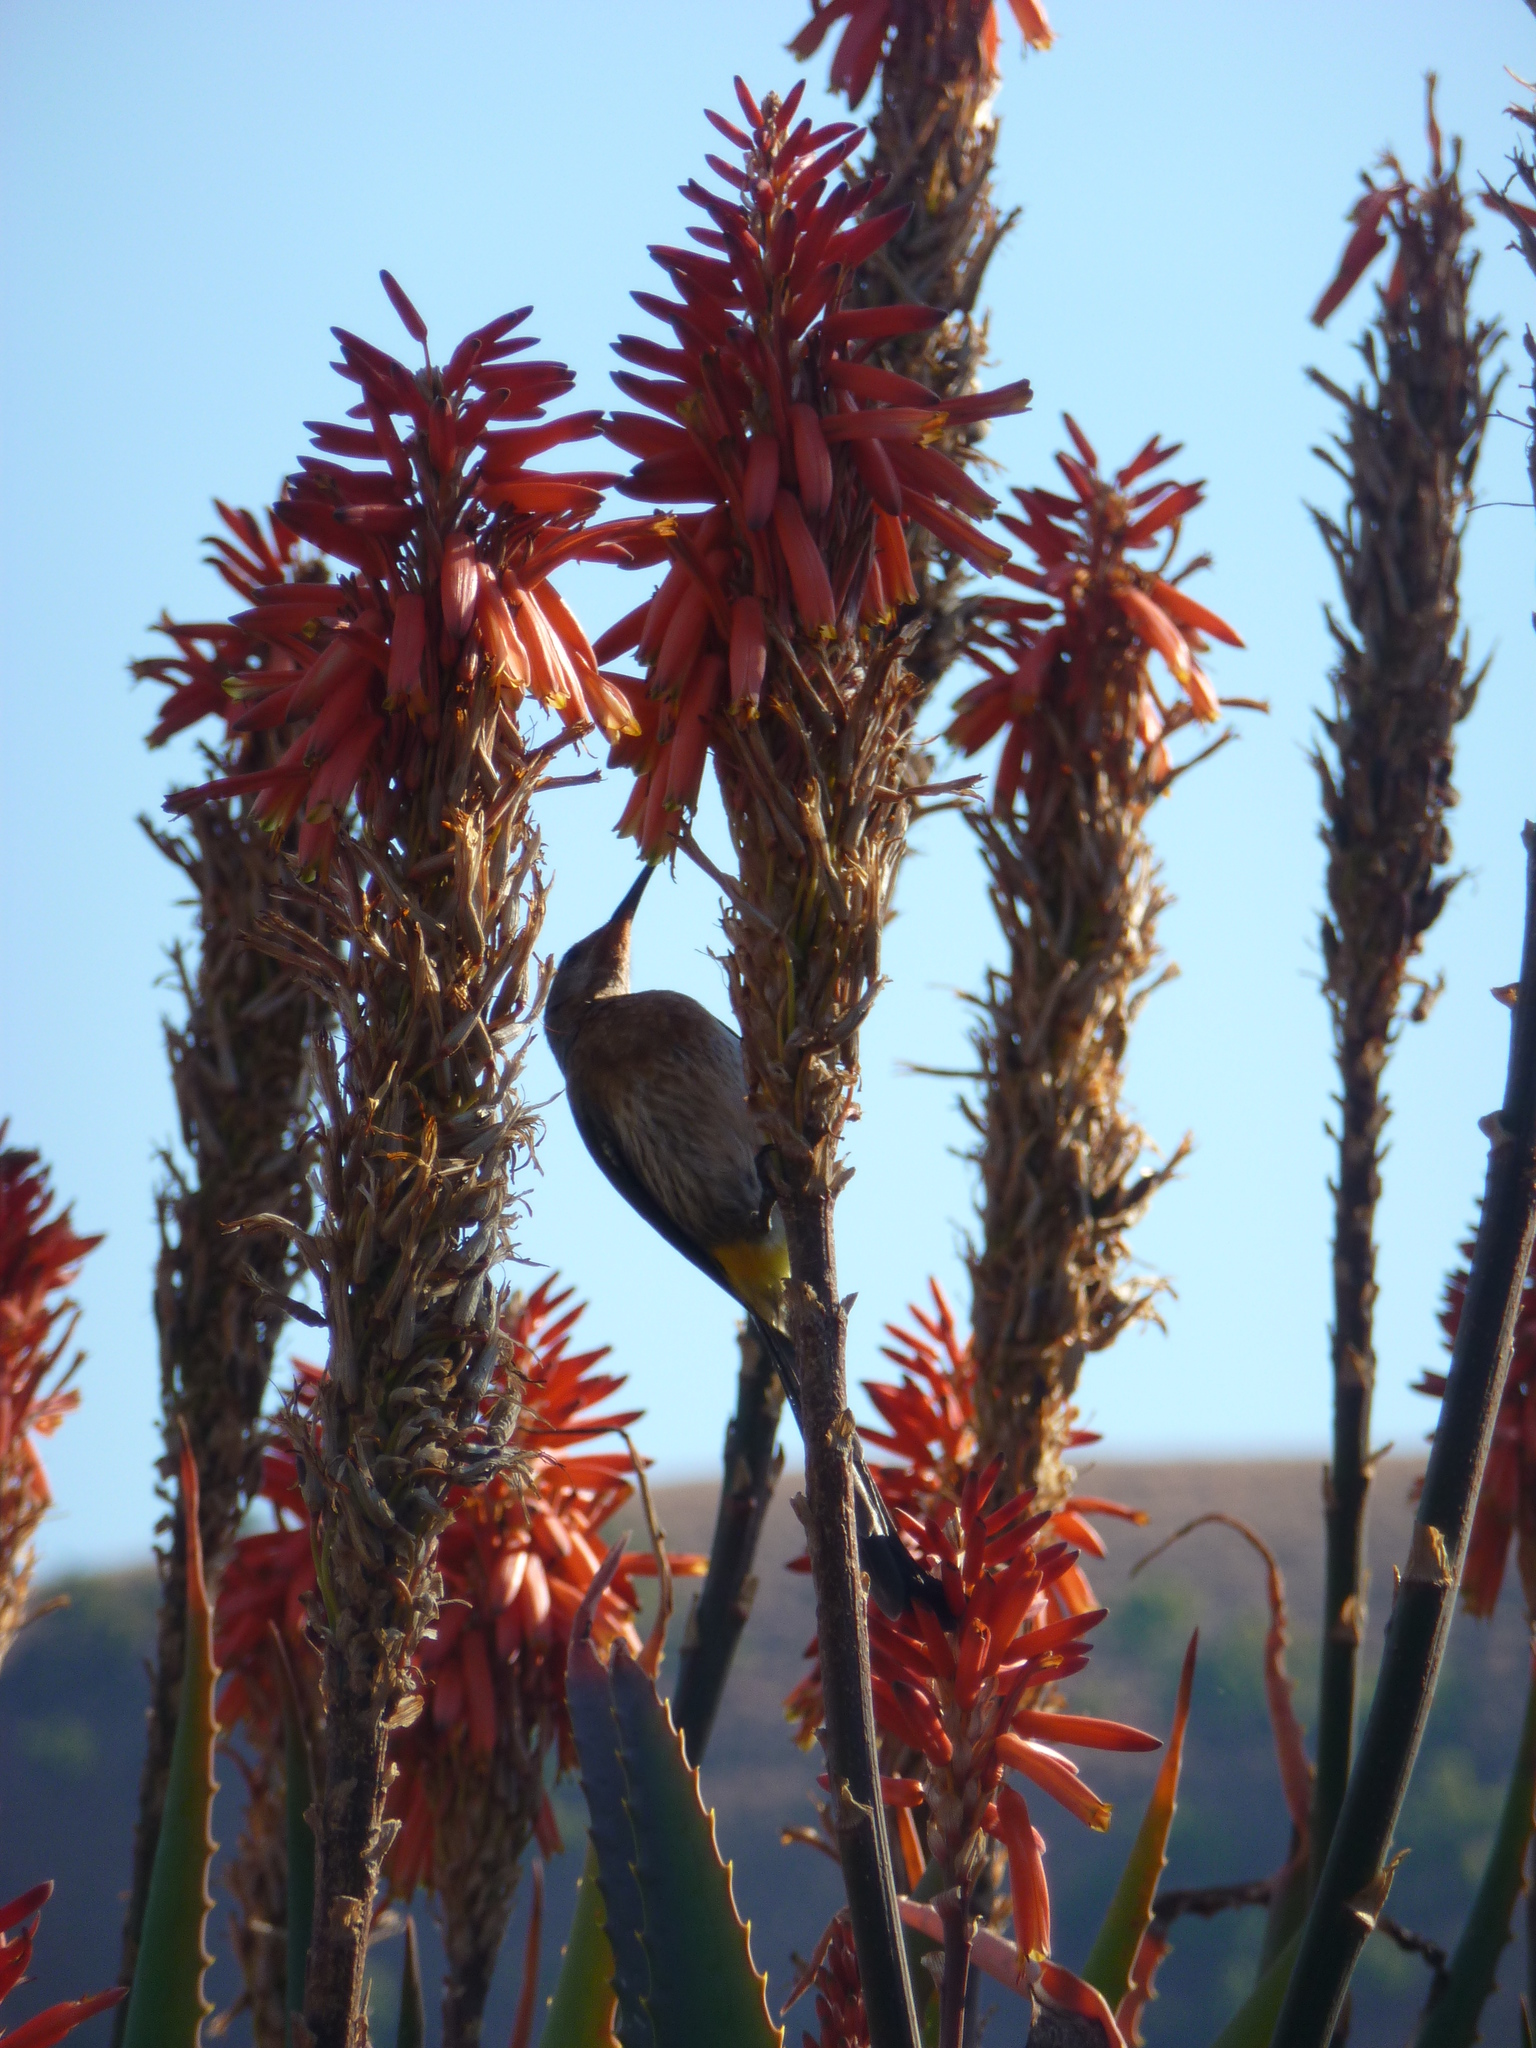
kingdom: Animalia
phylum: Chordata
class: Aves
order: Passeriformes
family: Promeropidae
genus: Promerops
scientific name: Promerops gurneyi
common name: Gurney's sugarbird
